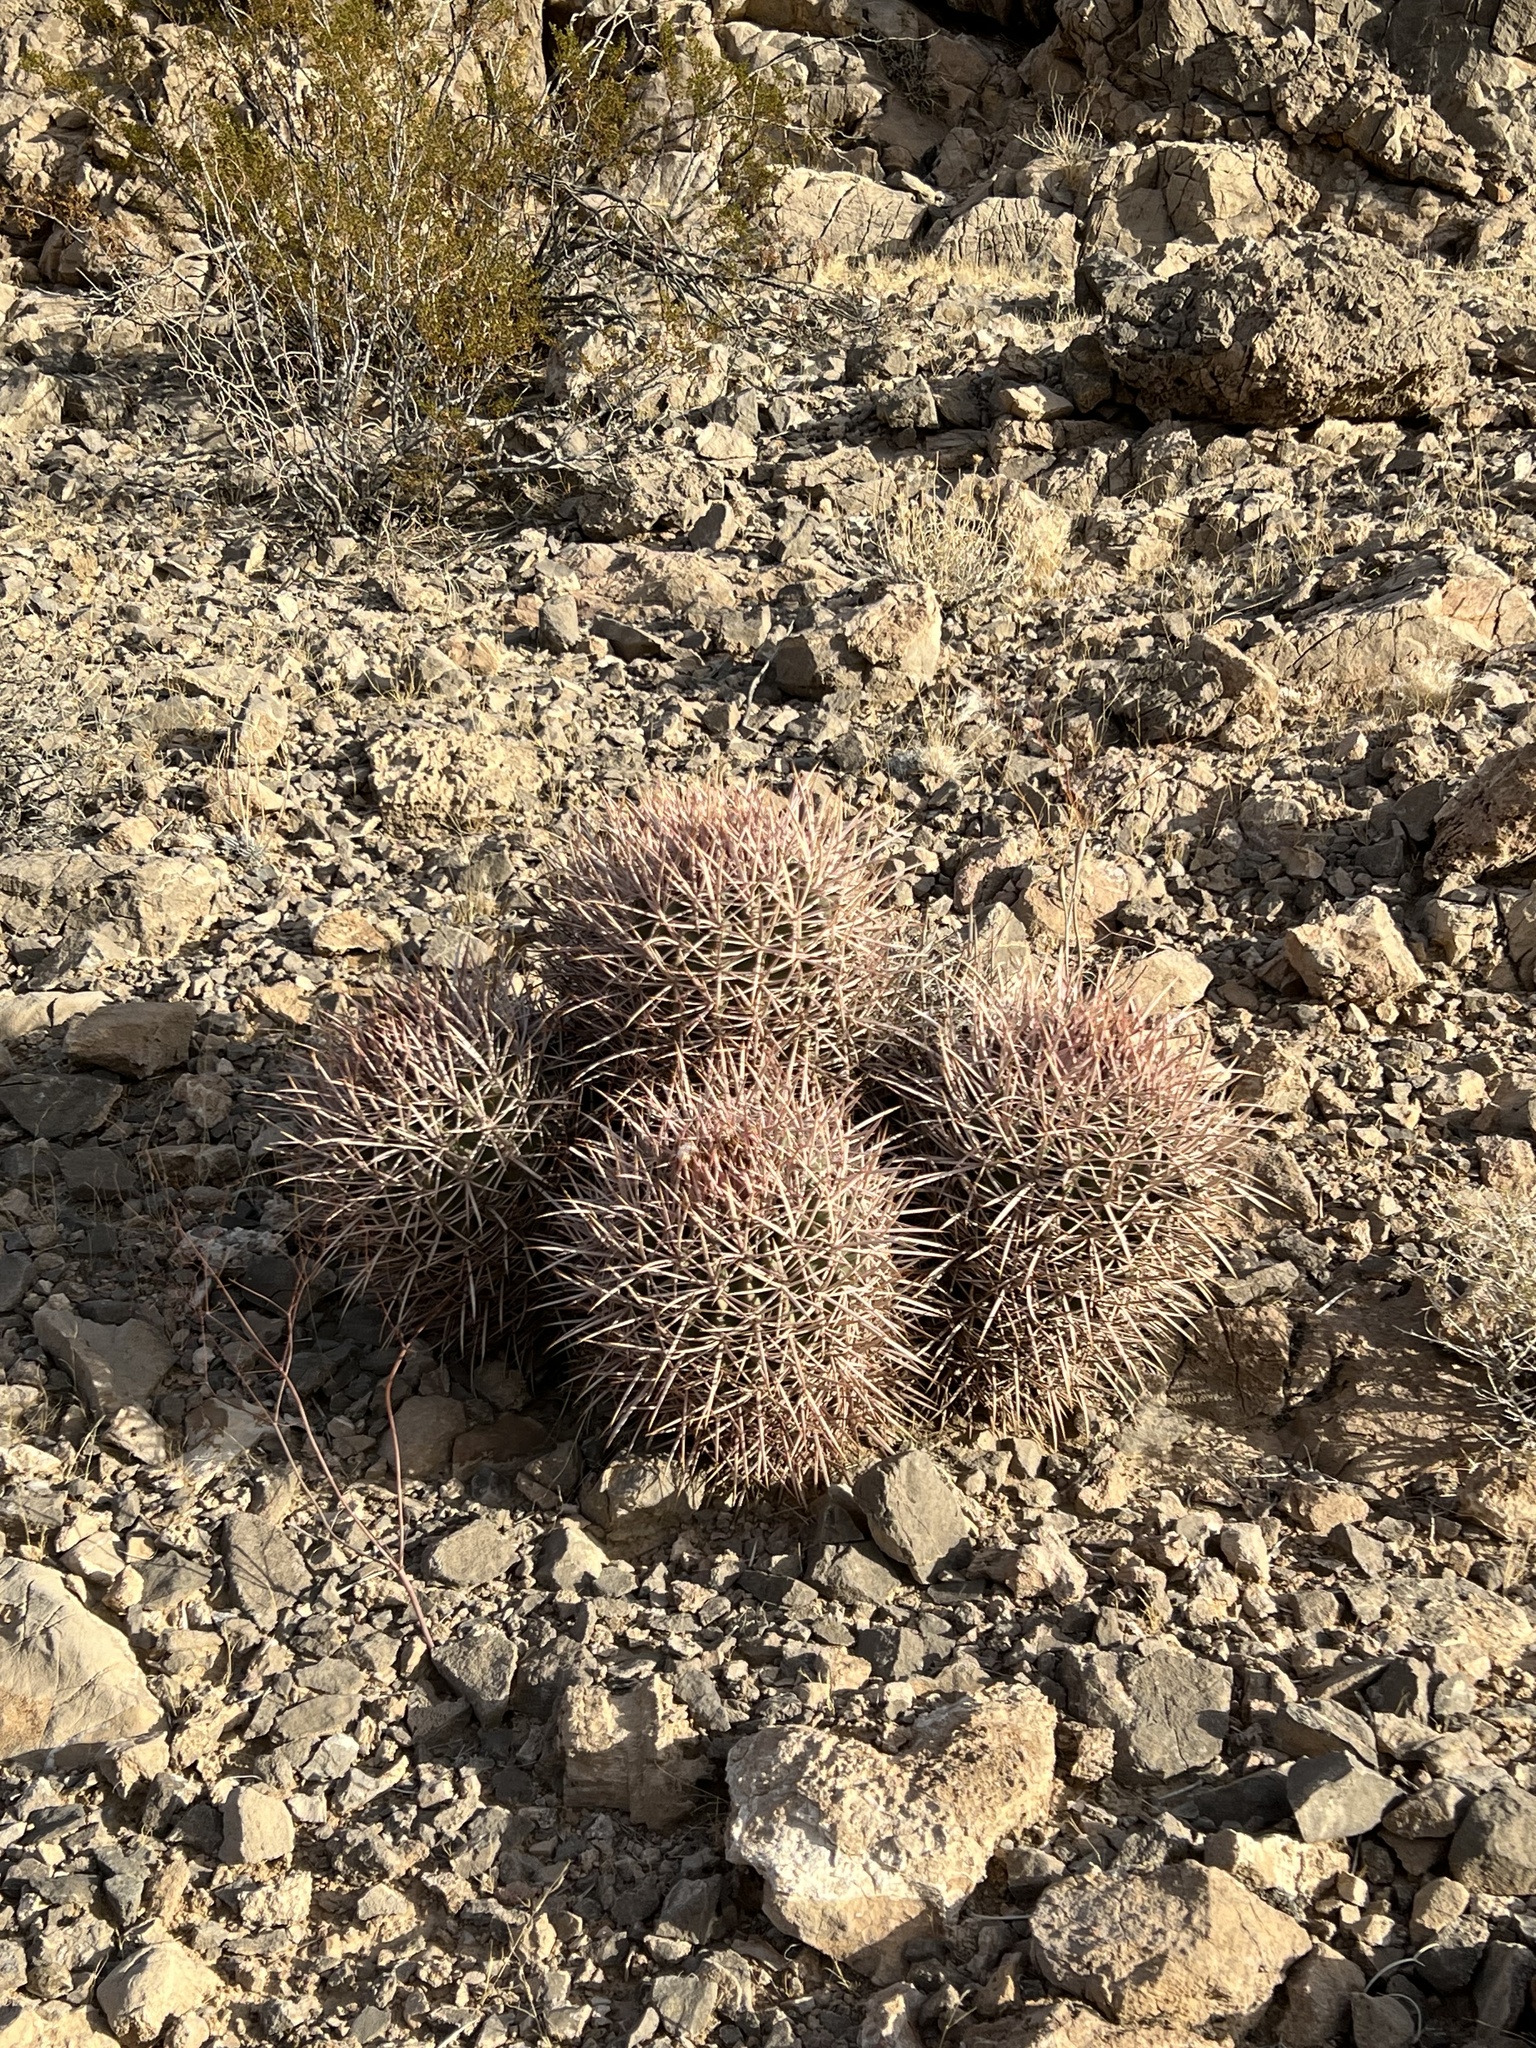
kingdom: Plantae
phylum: Tracheophyta
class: Magnoliopsida
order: Caryophyllales
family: Cactaceae
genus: Echinocactus
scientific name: Echinocactus polycephalus
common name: Cottontop cactus
